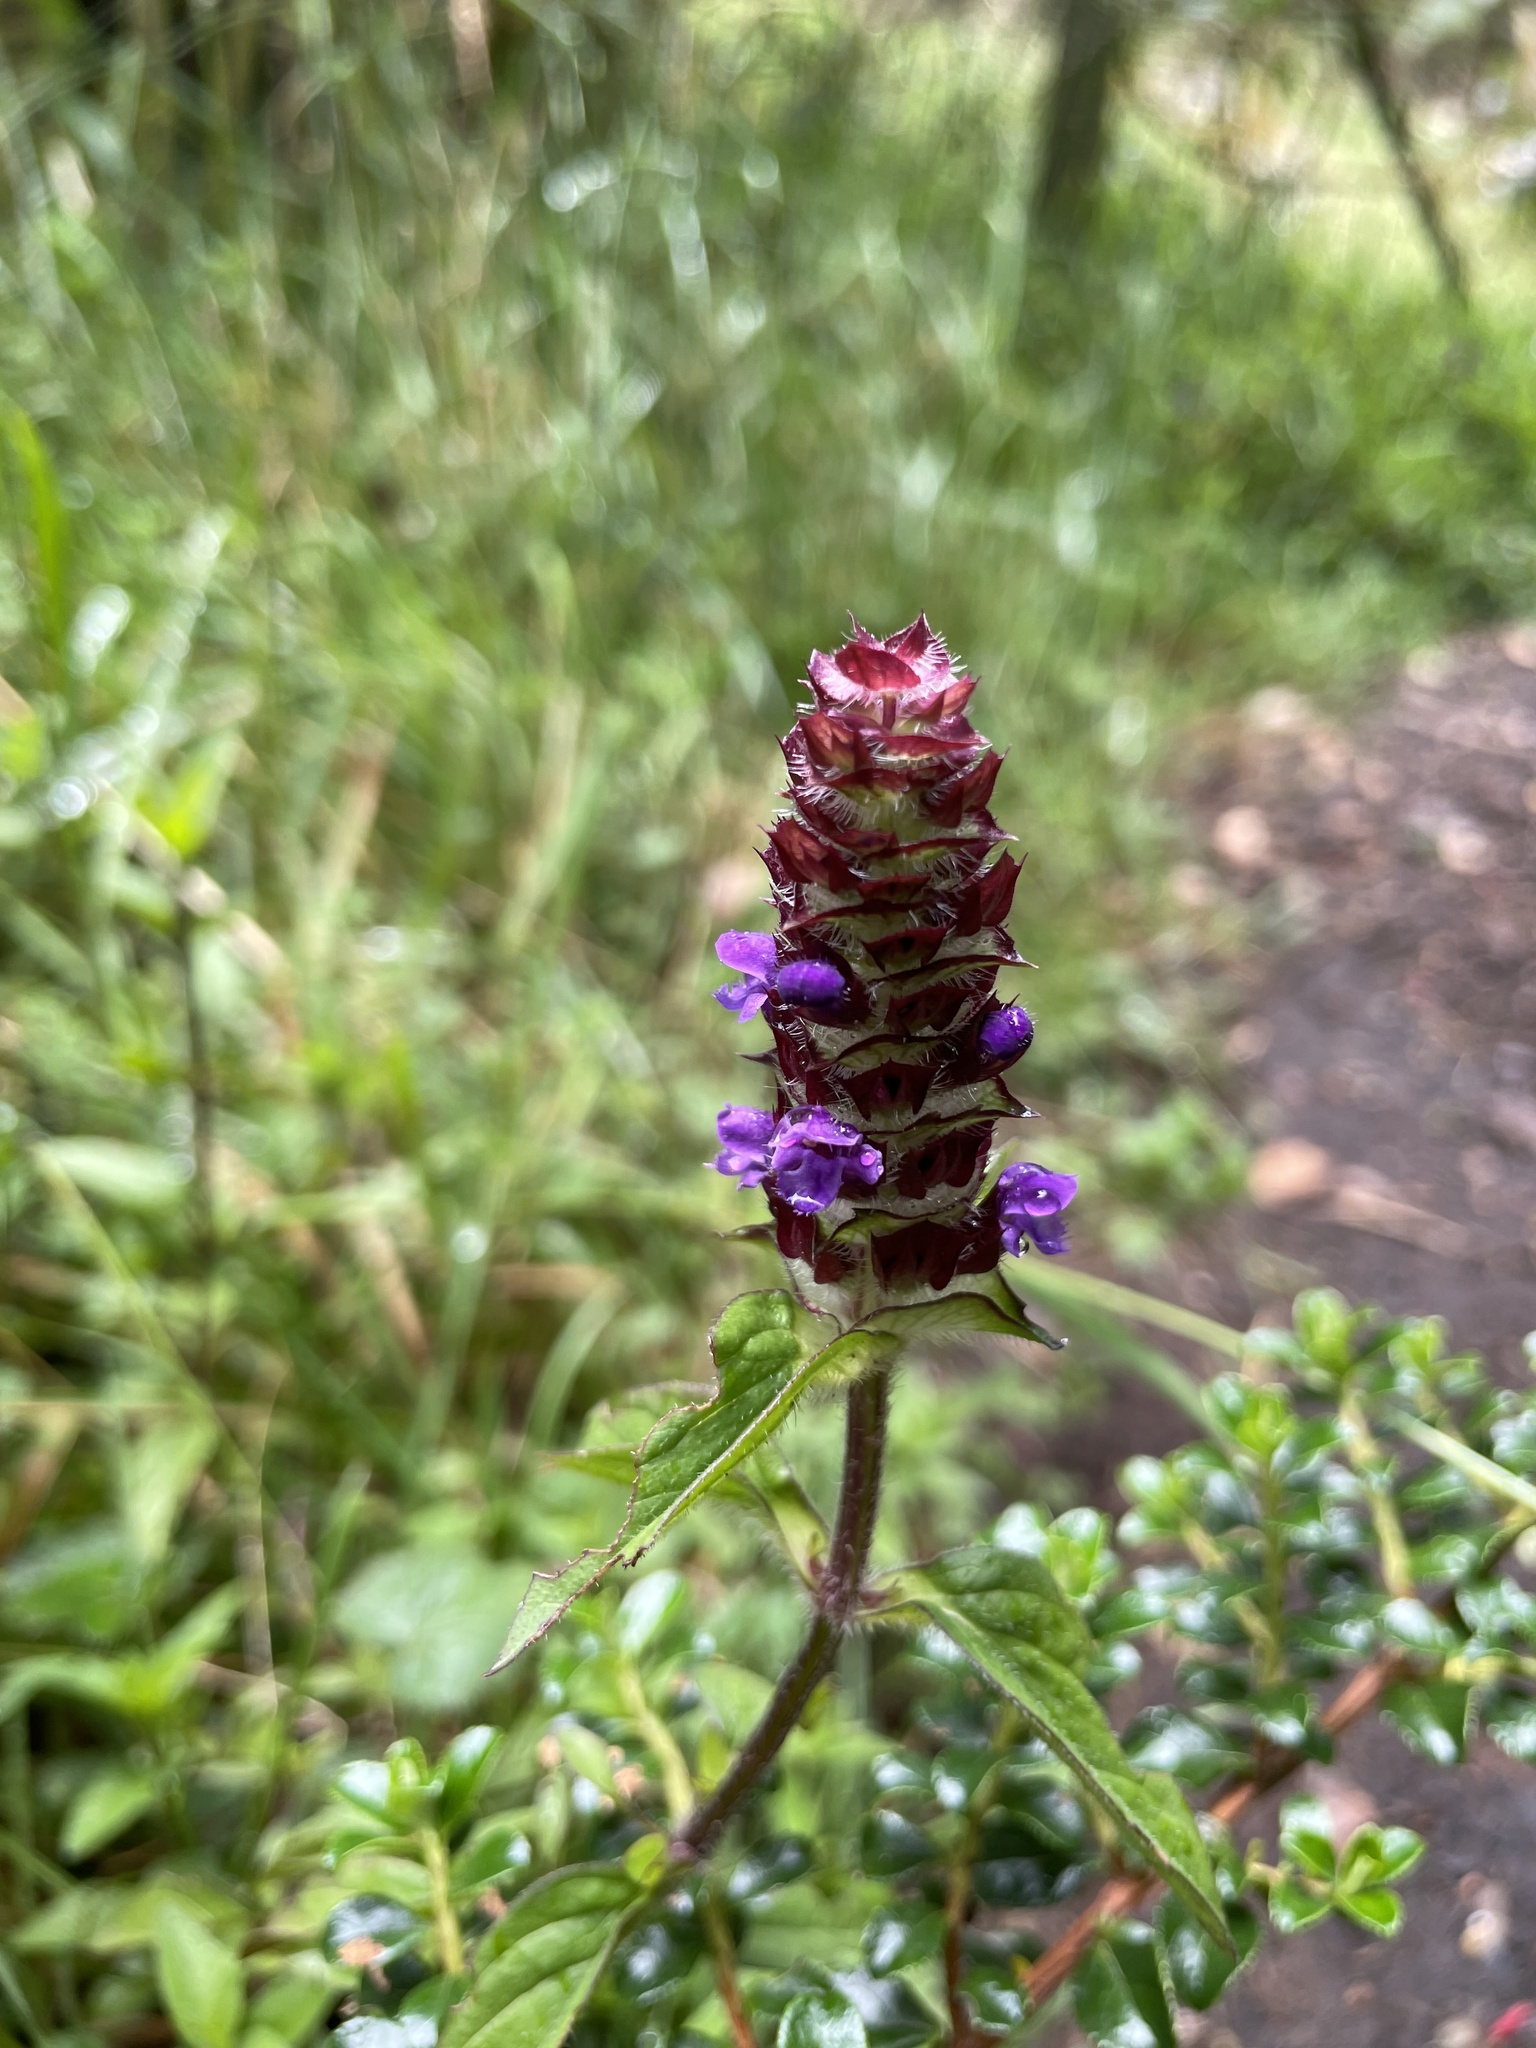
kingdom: Plantae
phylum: Tracheophyta
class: Magnoliopsida
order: Lamiales
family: Lamiaceae
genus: Prunella
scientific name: Prunella vulgaris
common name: Heal-all
